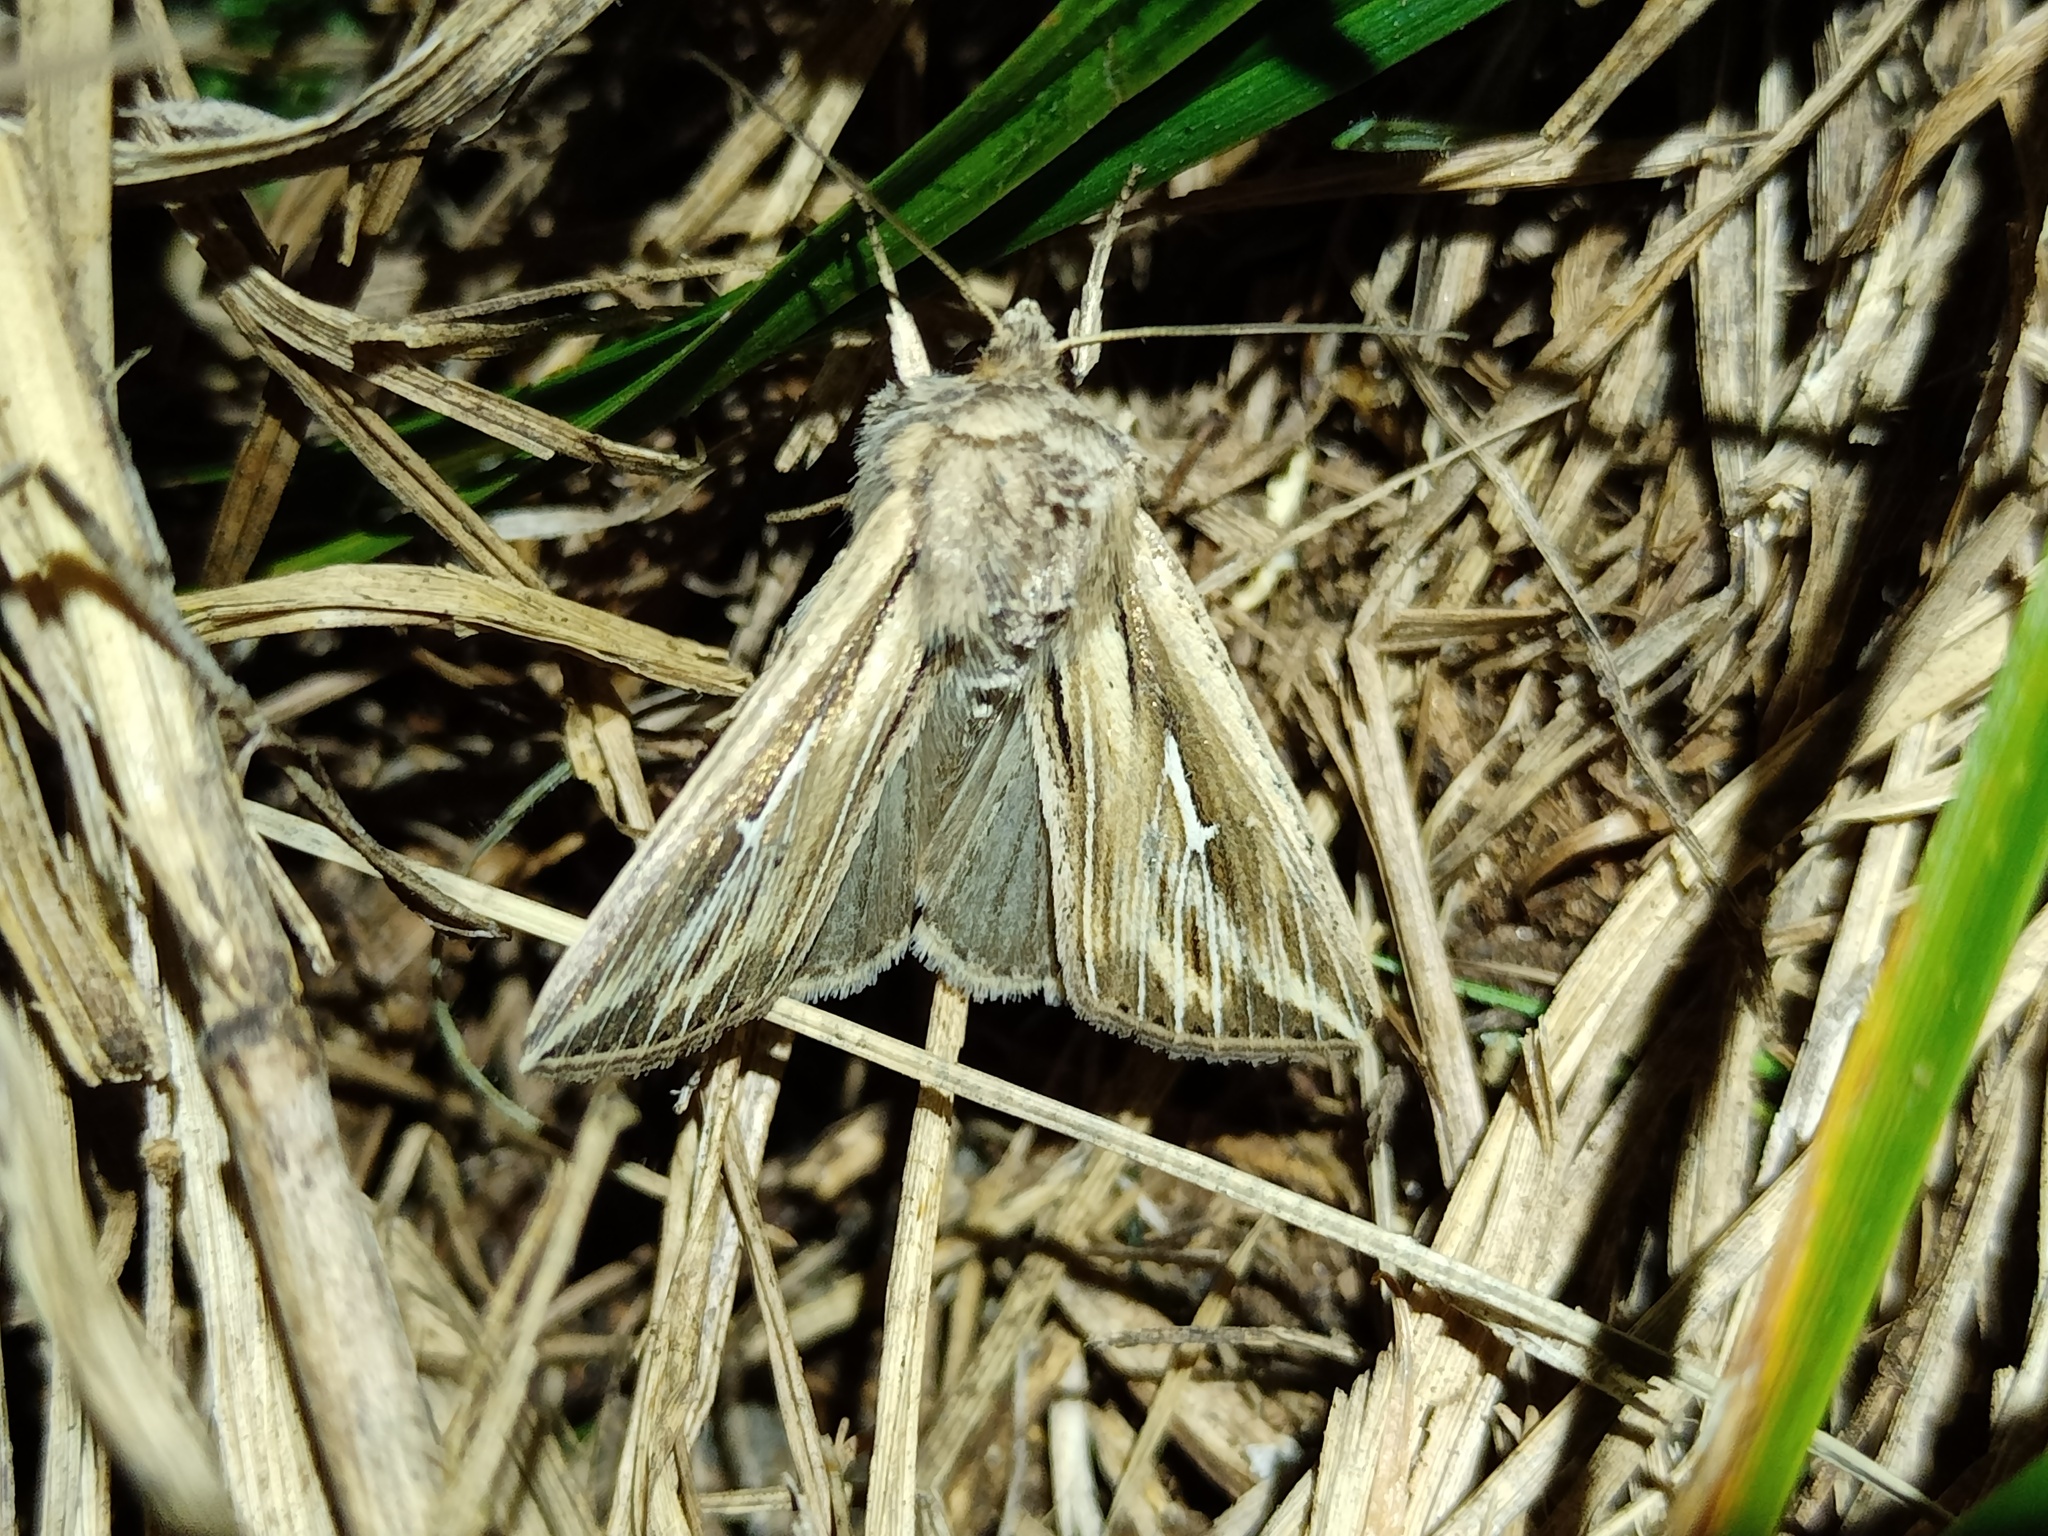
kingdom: Animalia
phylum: Arthropoda
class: Insecta
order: Lepidoptera
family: Noctuidae
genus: Mythimna
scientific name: Mythimna l-album
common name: L-album wainscot
